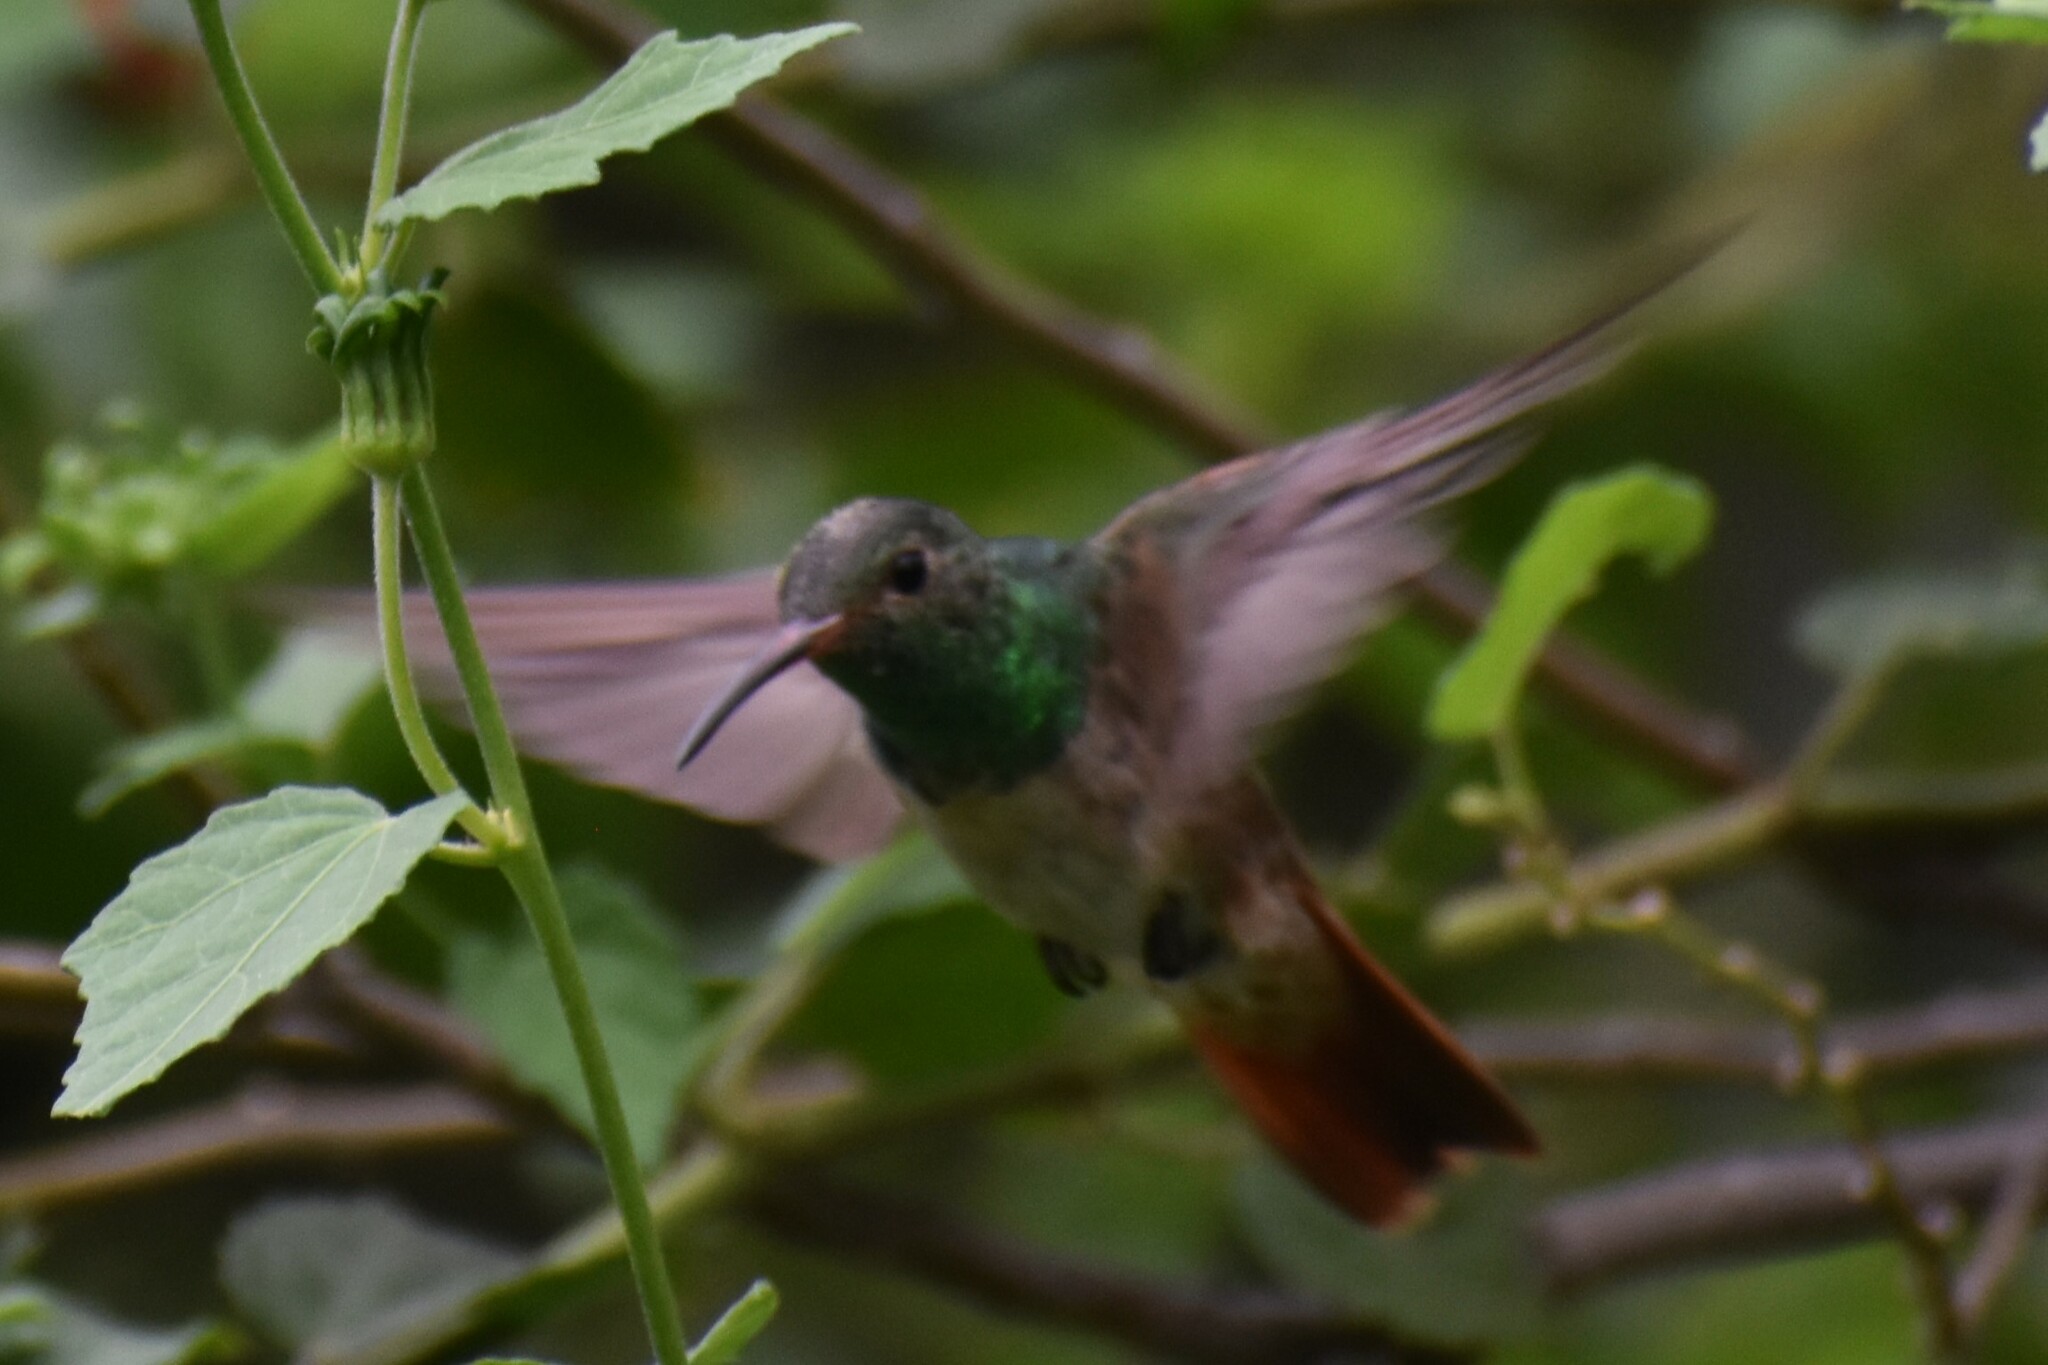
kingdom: Animalia
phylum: Chordata
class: Aves
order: Apodiformes
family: Trochilidae
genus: Amazilia
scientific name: Amazilia yucatanensis
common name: Buff-bellied hummingbird
